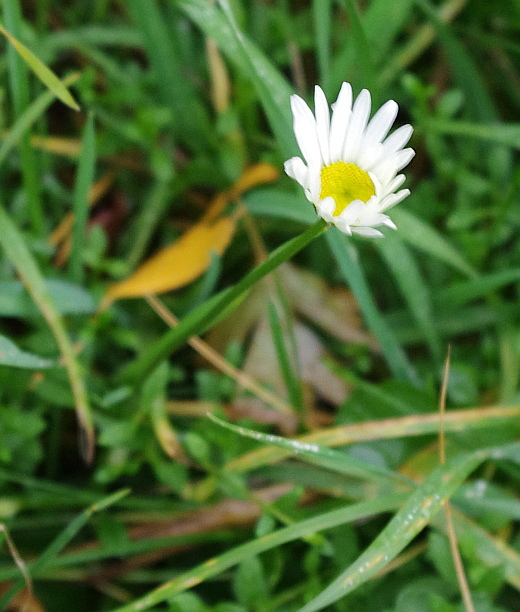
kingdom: Plantae
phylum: Tracheophyta
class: Magnoliopsida
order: Asterales
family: Asteraceae
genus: Leucanthemum
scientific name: Leucanthemum vulgare
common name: Oxeye daisy
